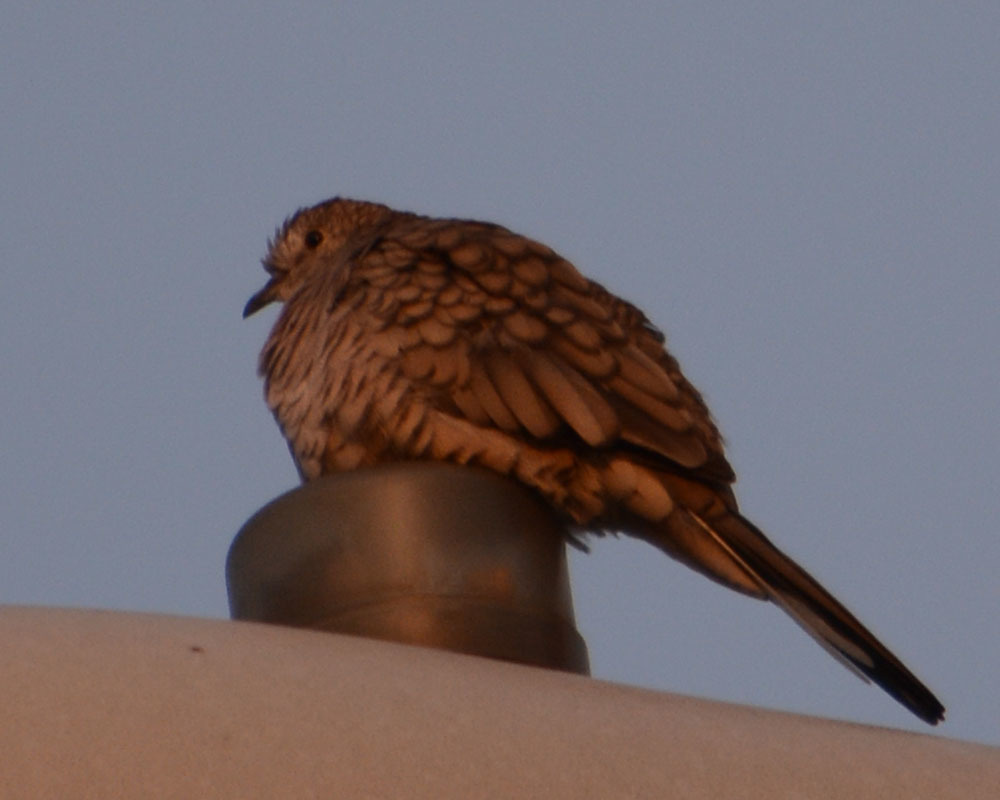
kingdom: Animalia
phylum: Chordata
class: Aves
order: Columbiformes
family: Columbidae
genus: Columbina
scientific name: Columbina inca
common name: Inca dove
